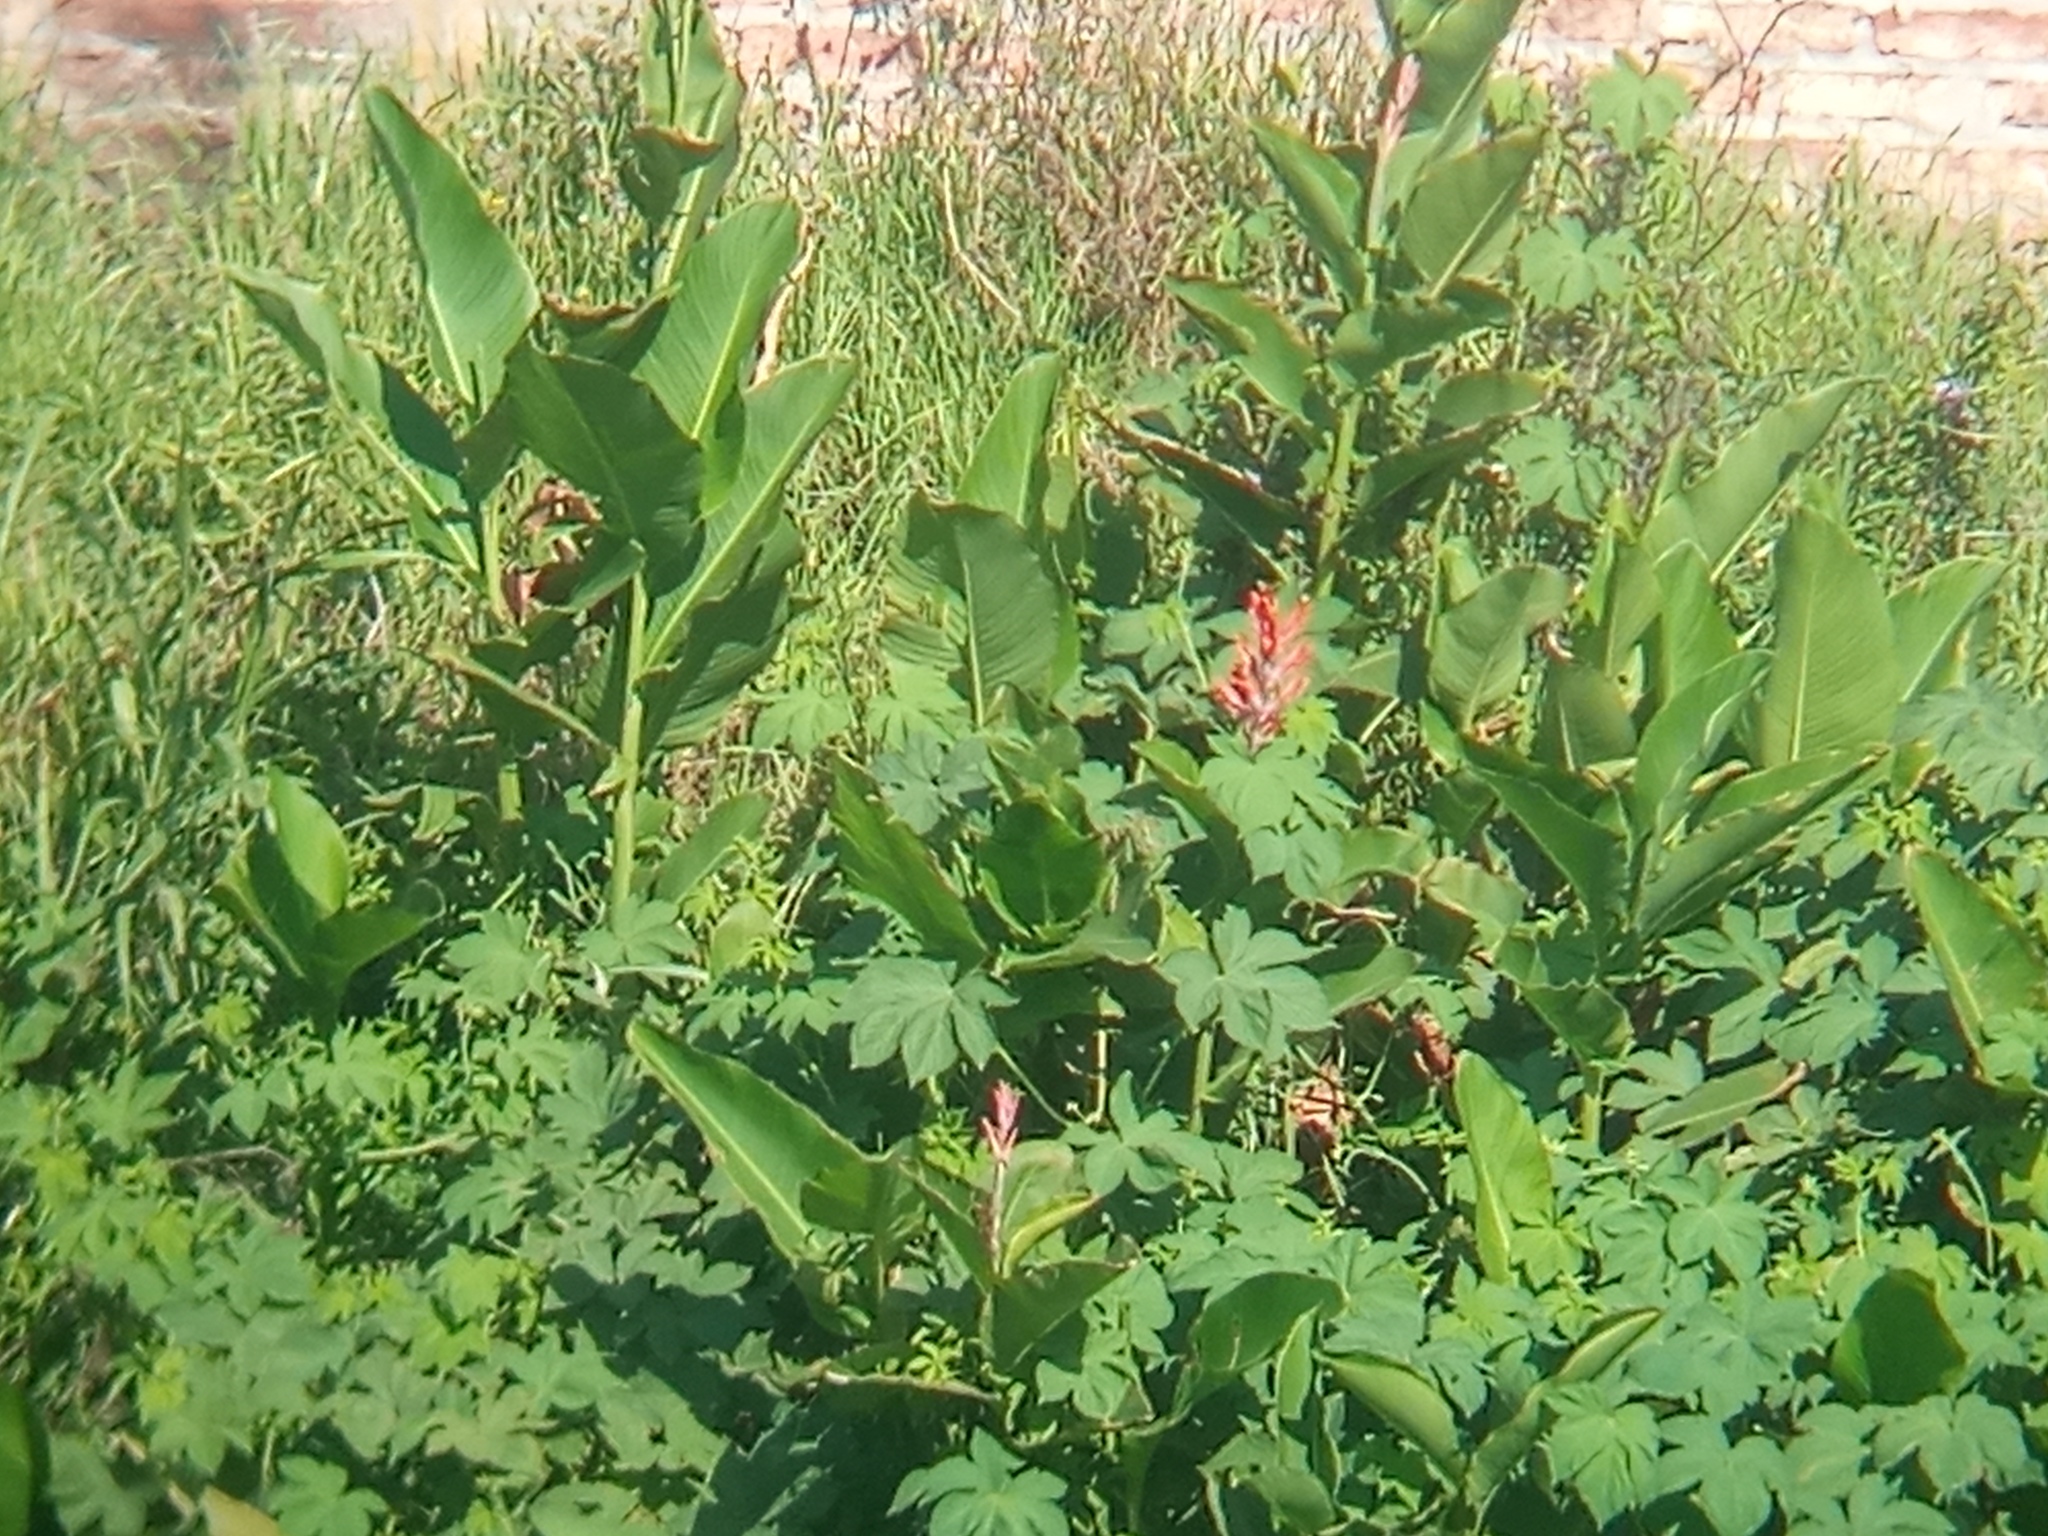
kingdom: Plantae
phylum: Tracheophyta
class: Liliopsida
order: Zingiberales
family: Cannaceae
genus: Canna
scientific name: Canna indica
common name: Indian shot
